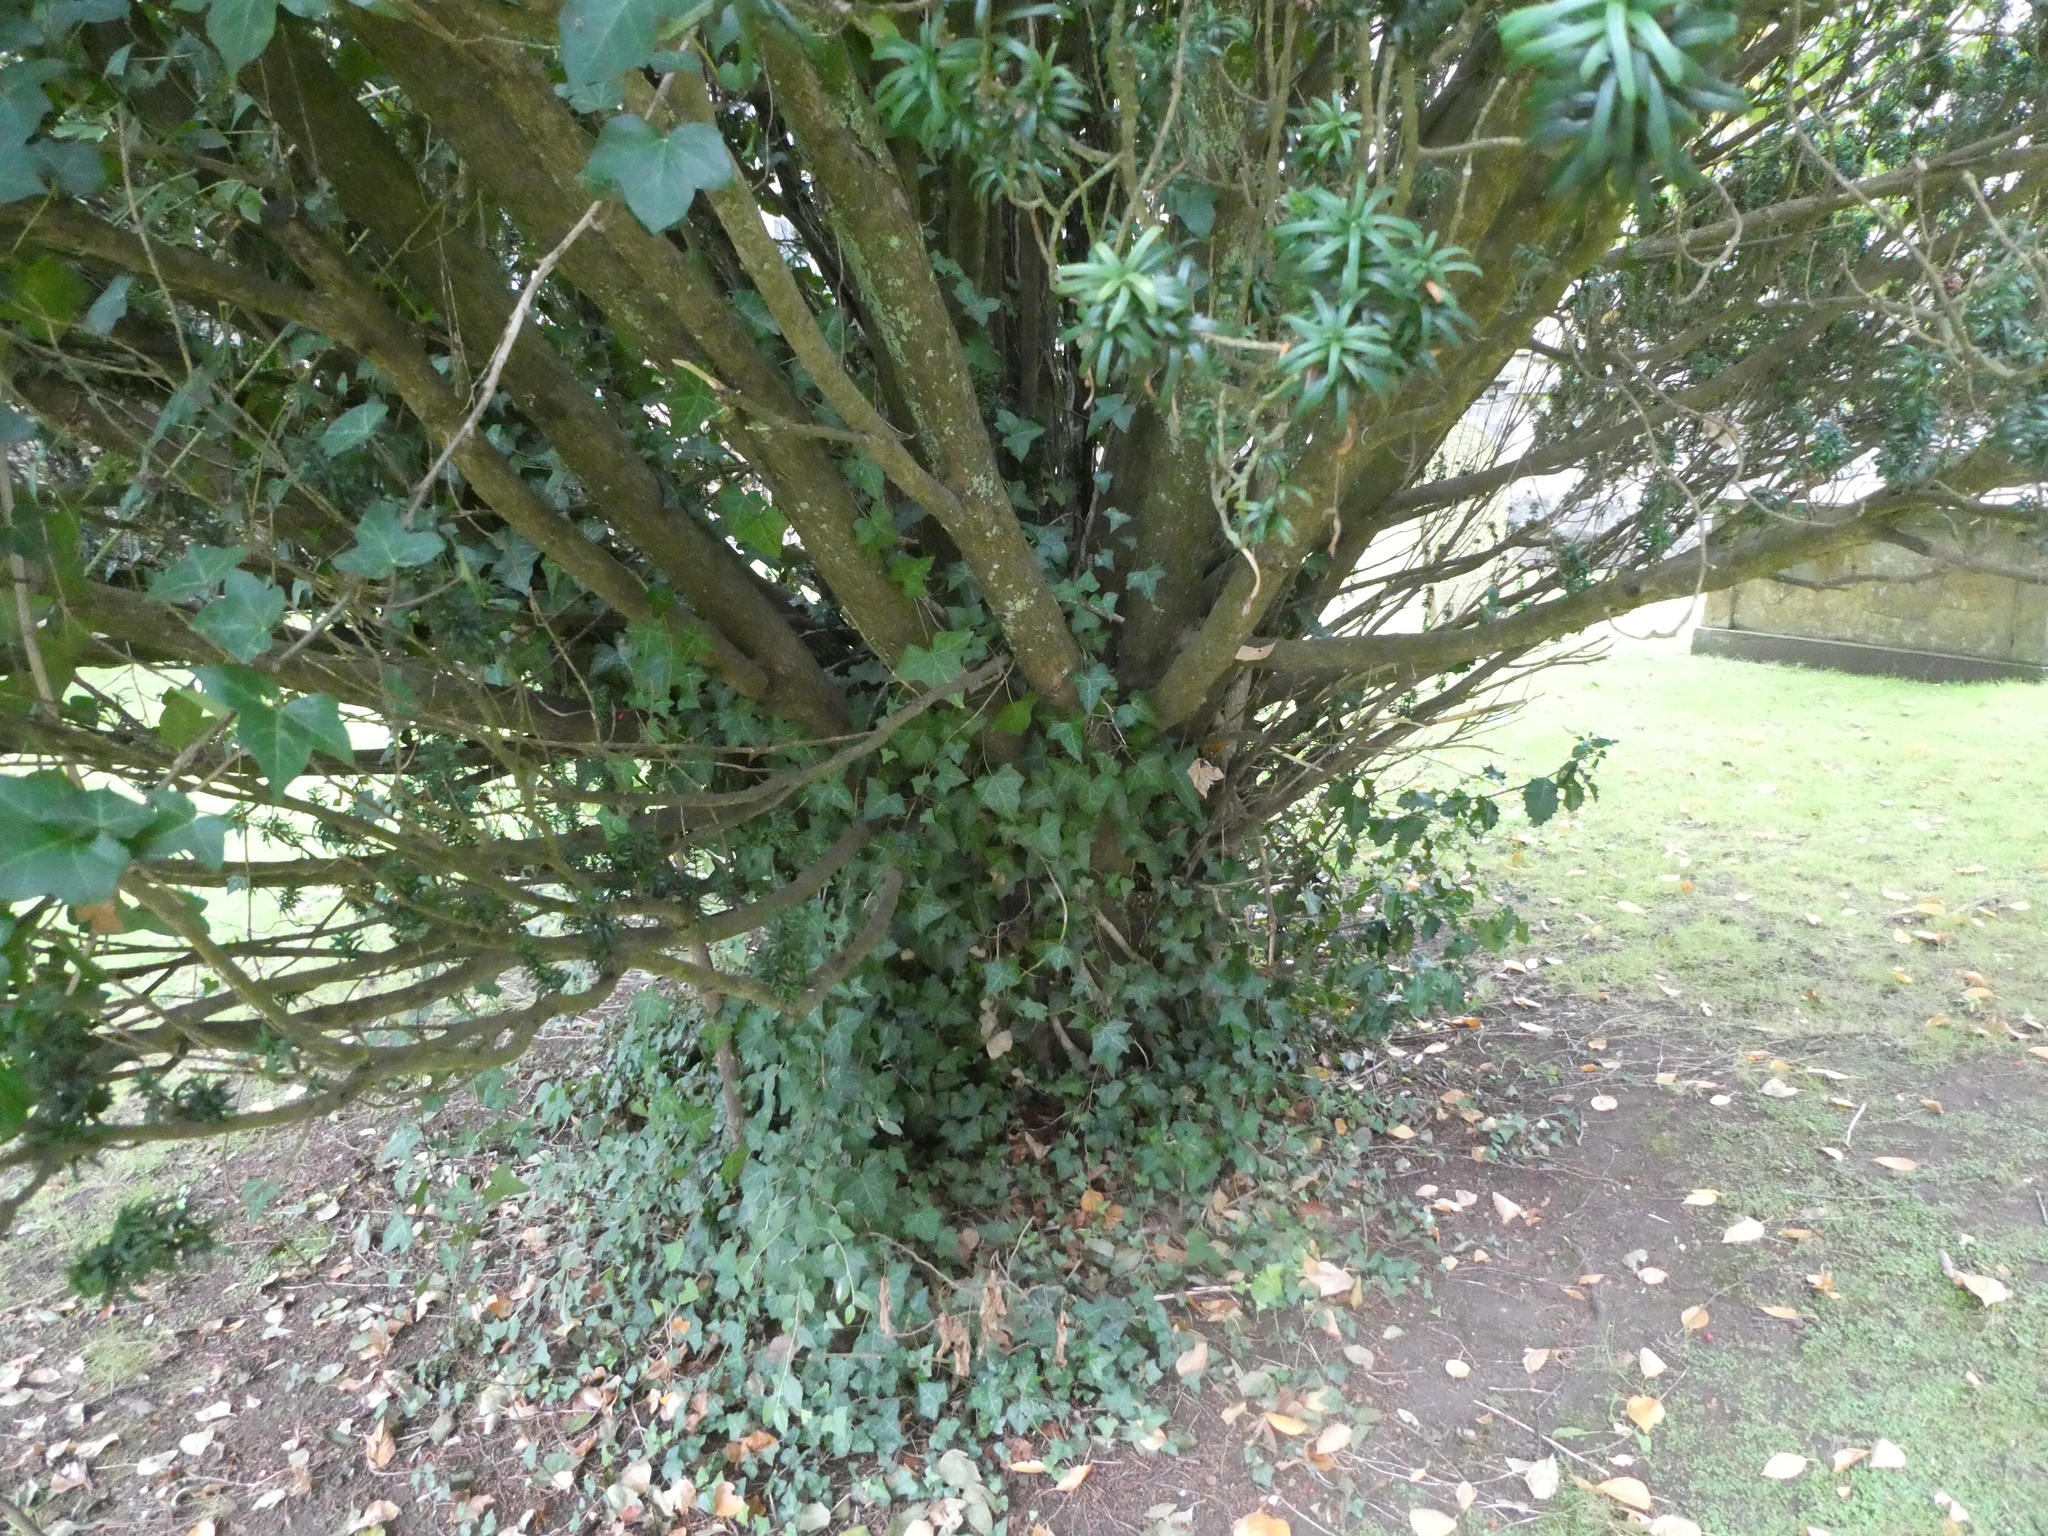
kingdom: Plantae
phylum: Tracheophyta
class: Pinopsida
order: Pinales
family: Taxaceae
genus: Taxus
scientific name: Taxus baccata
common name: Yew
